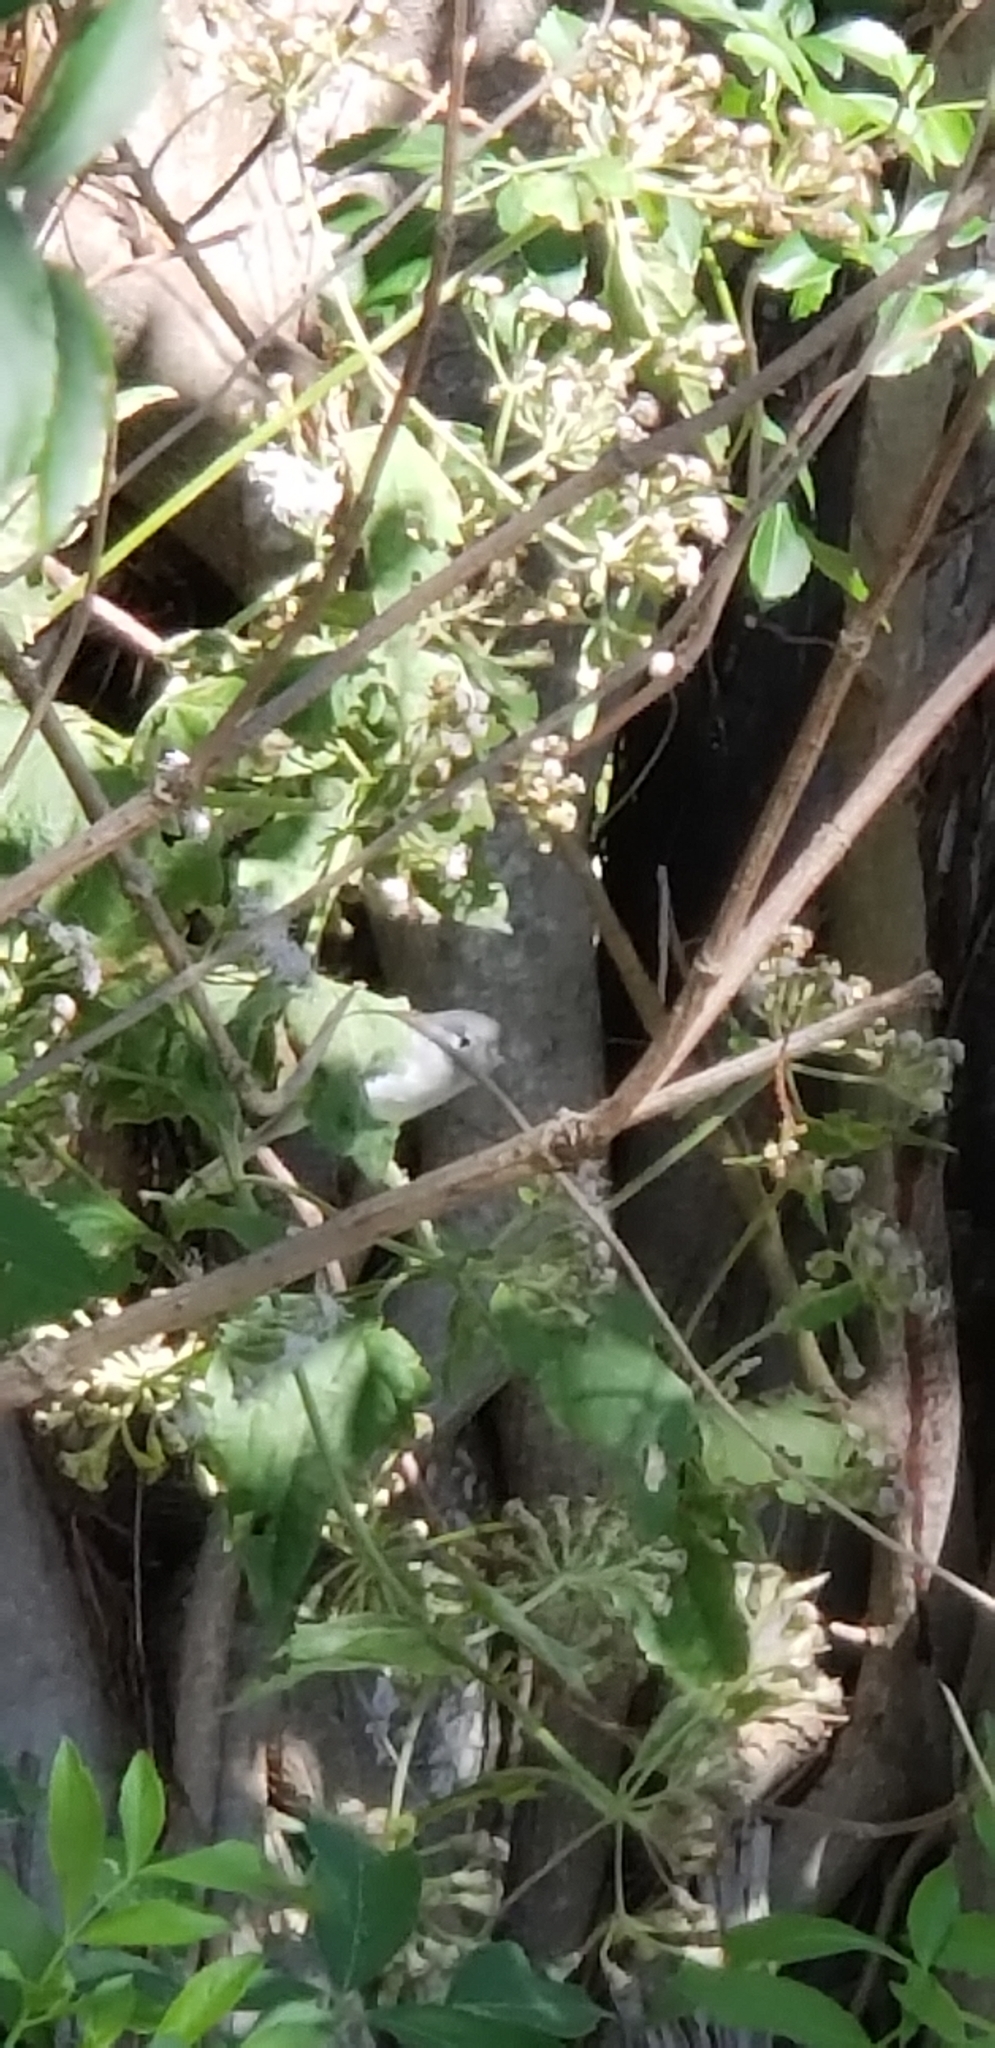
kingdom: Animalia
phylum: Chordata
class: Aves
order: Passeriformes
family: Polioptilidae
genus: Polioptila
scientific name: Polioptila caerulea
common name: Blue-gray gnatcatcher
